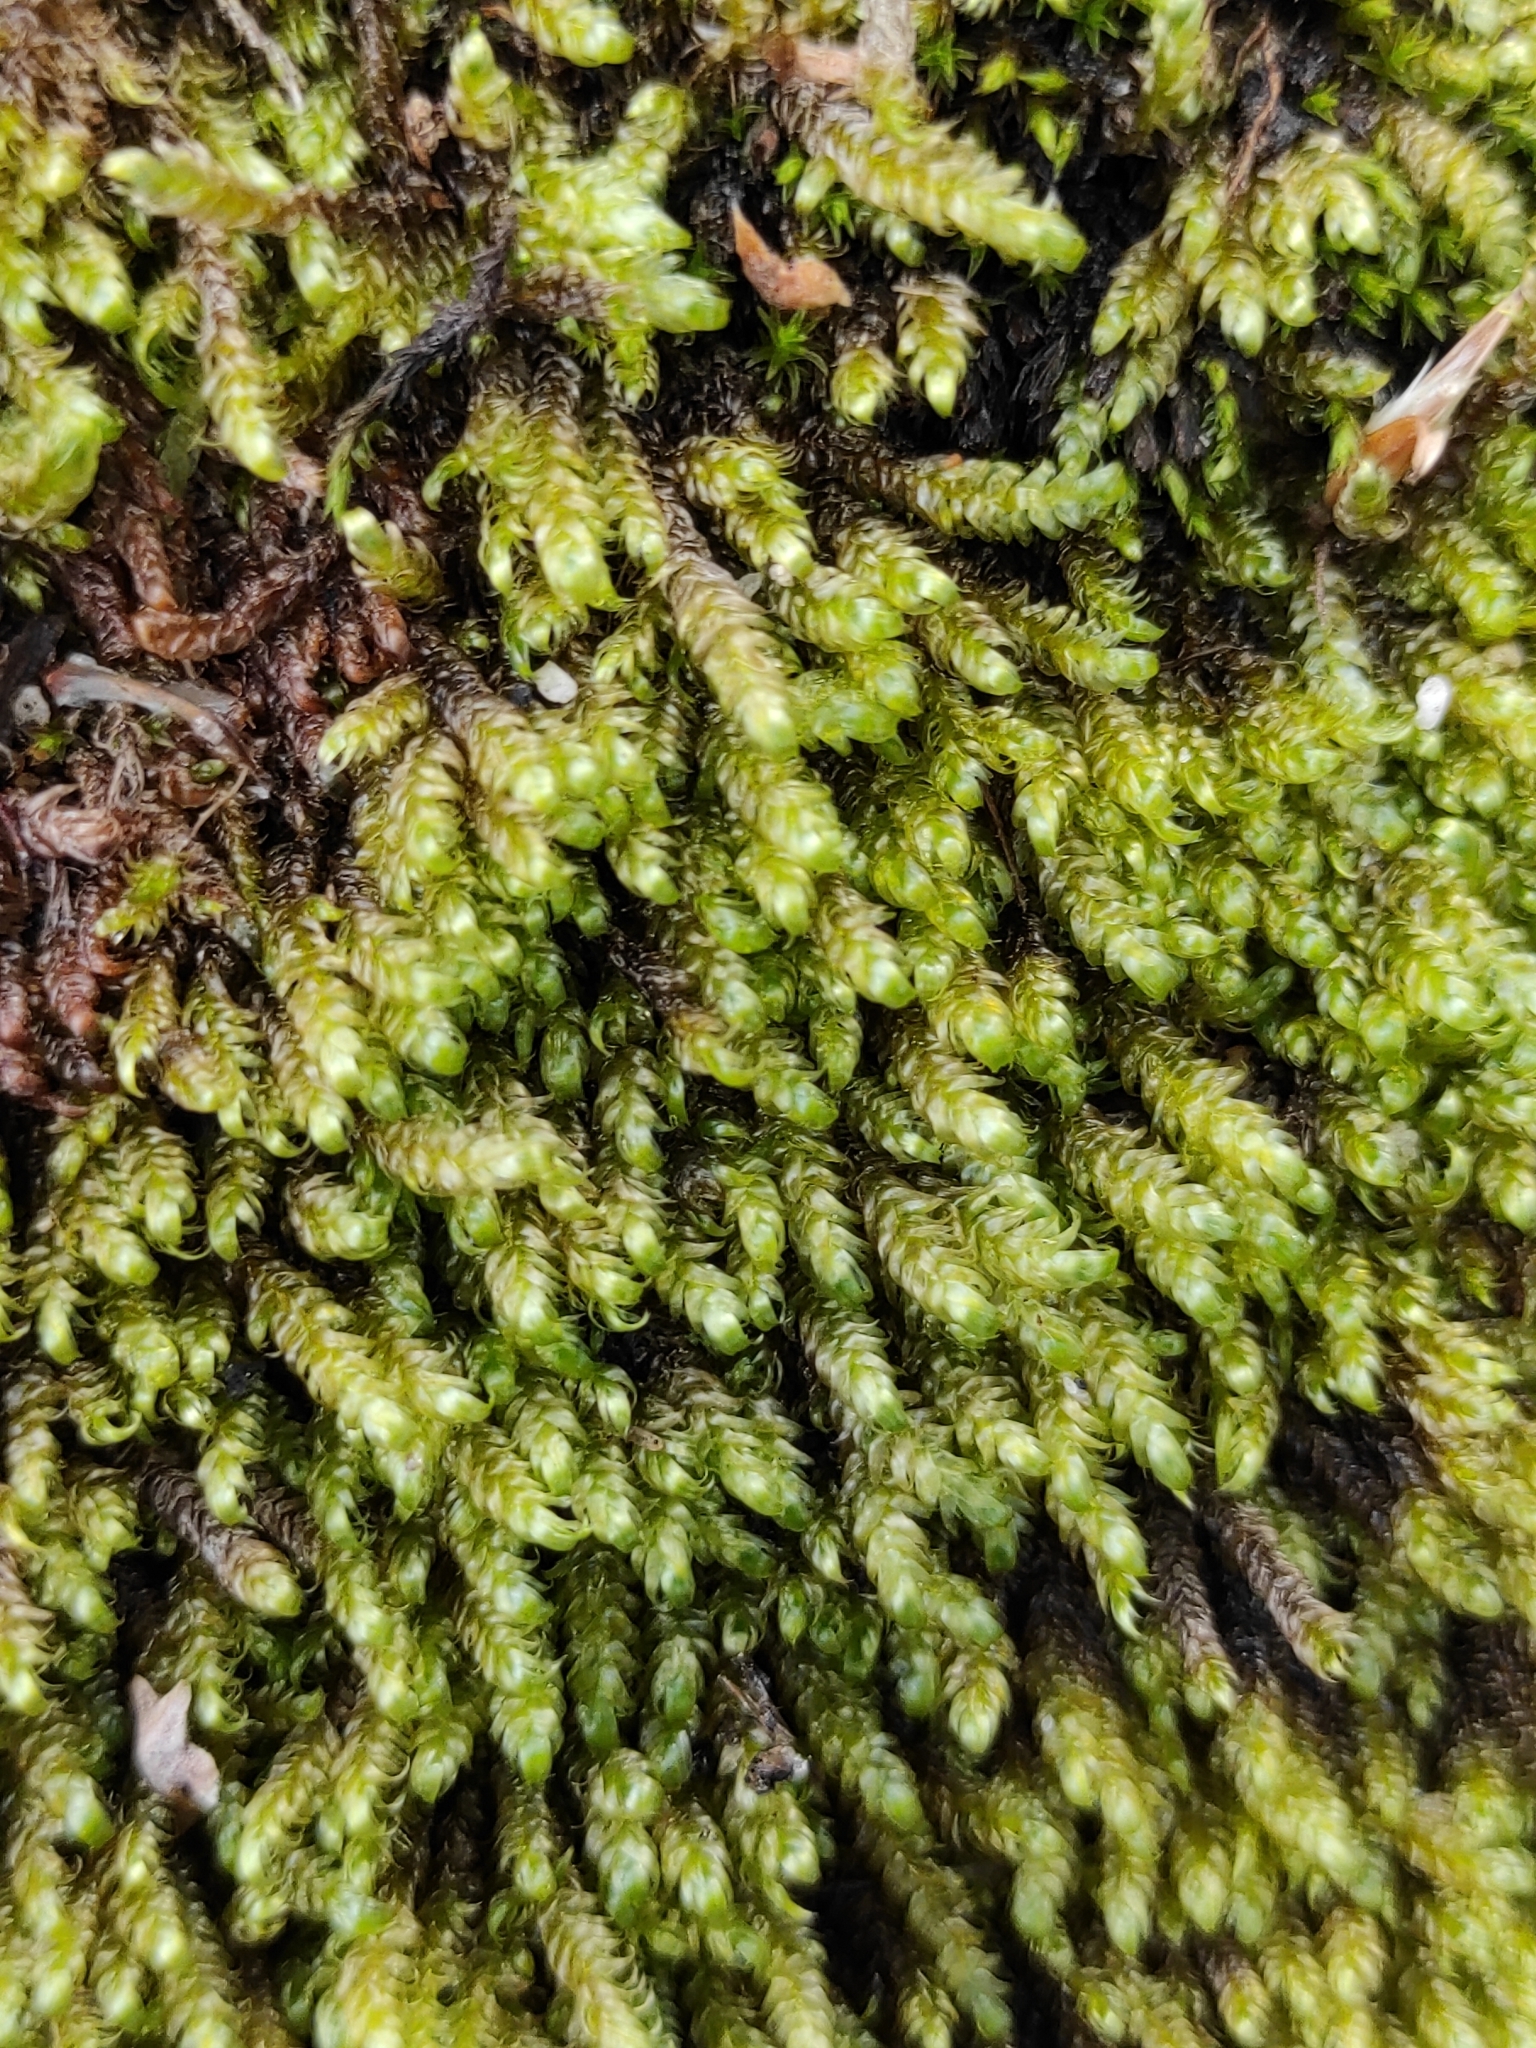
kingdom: Plantae
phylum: Bryophyta
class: Bryopsida
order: Hypnales
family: Hypnaceae
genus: Hypnum
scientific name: Hypnum cupressiforme
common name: Cypress-leaved plait-moss
